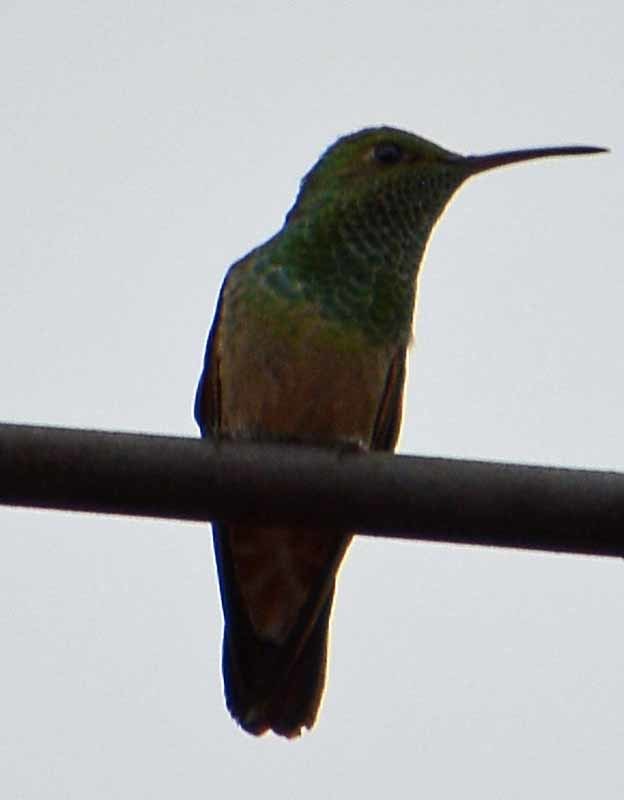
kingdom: Animalia
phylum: Chordata
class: Aves
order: Apodiformes
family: Trochilidae
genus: Saucerottia
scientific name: Saucerottia beryllina
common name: Berylline hummingbird
